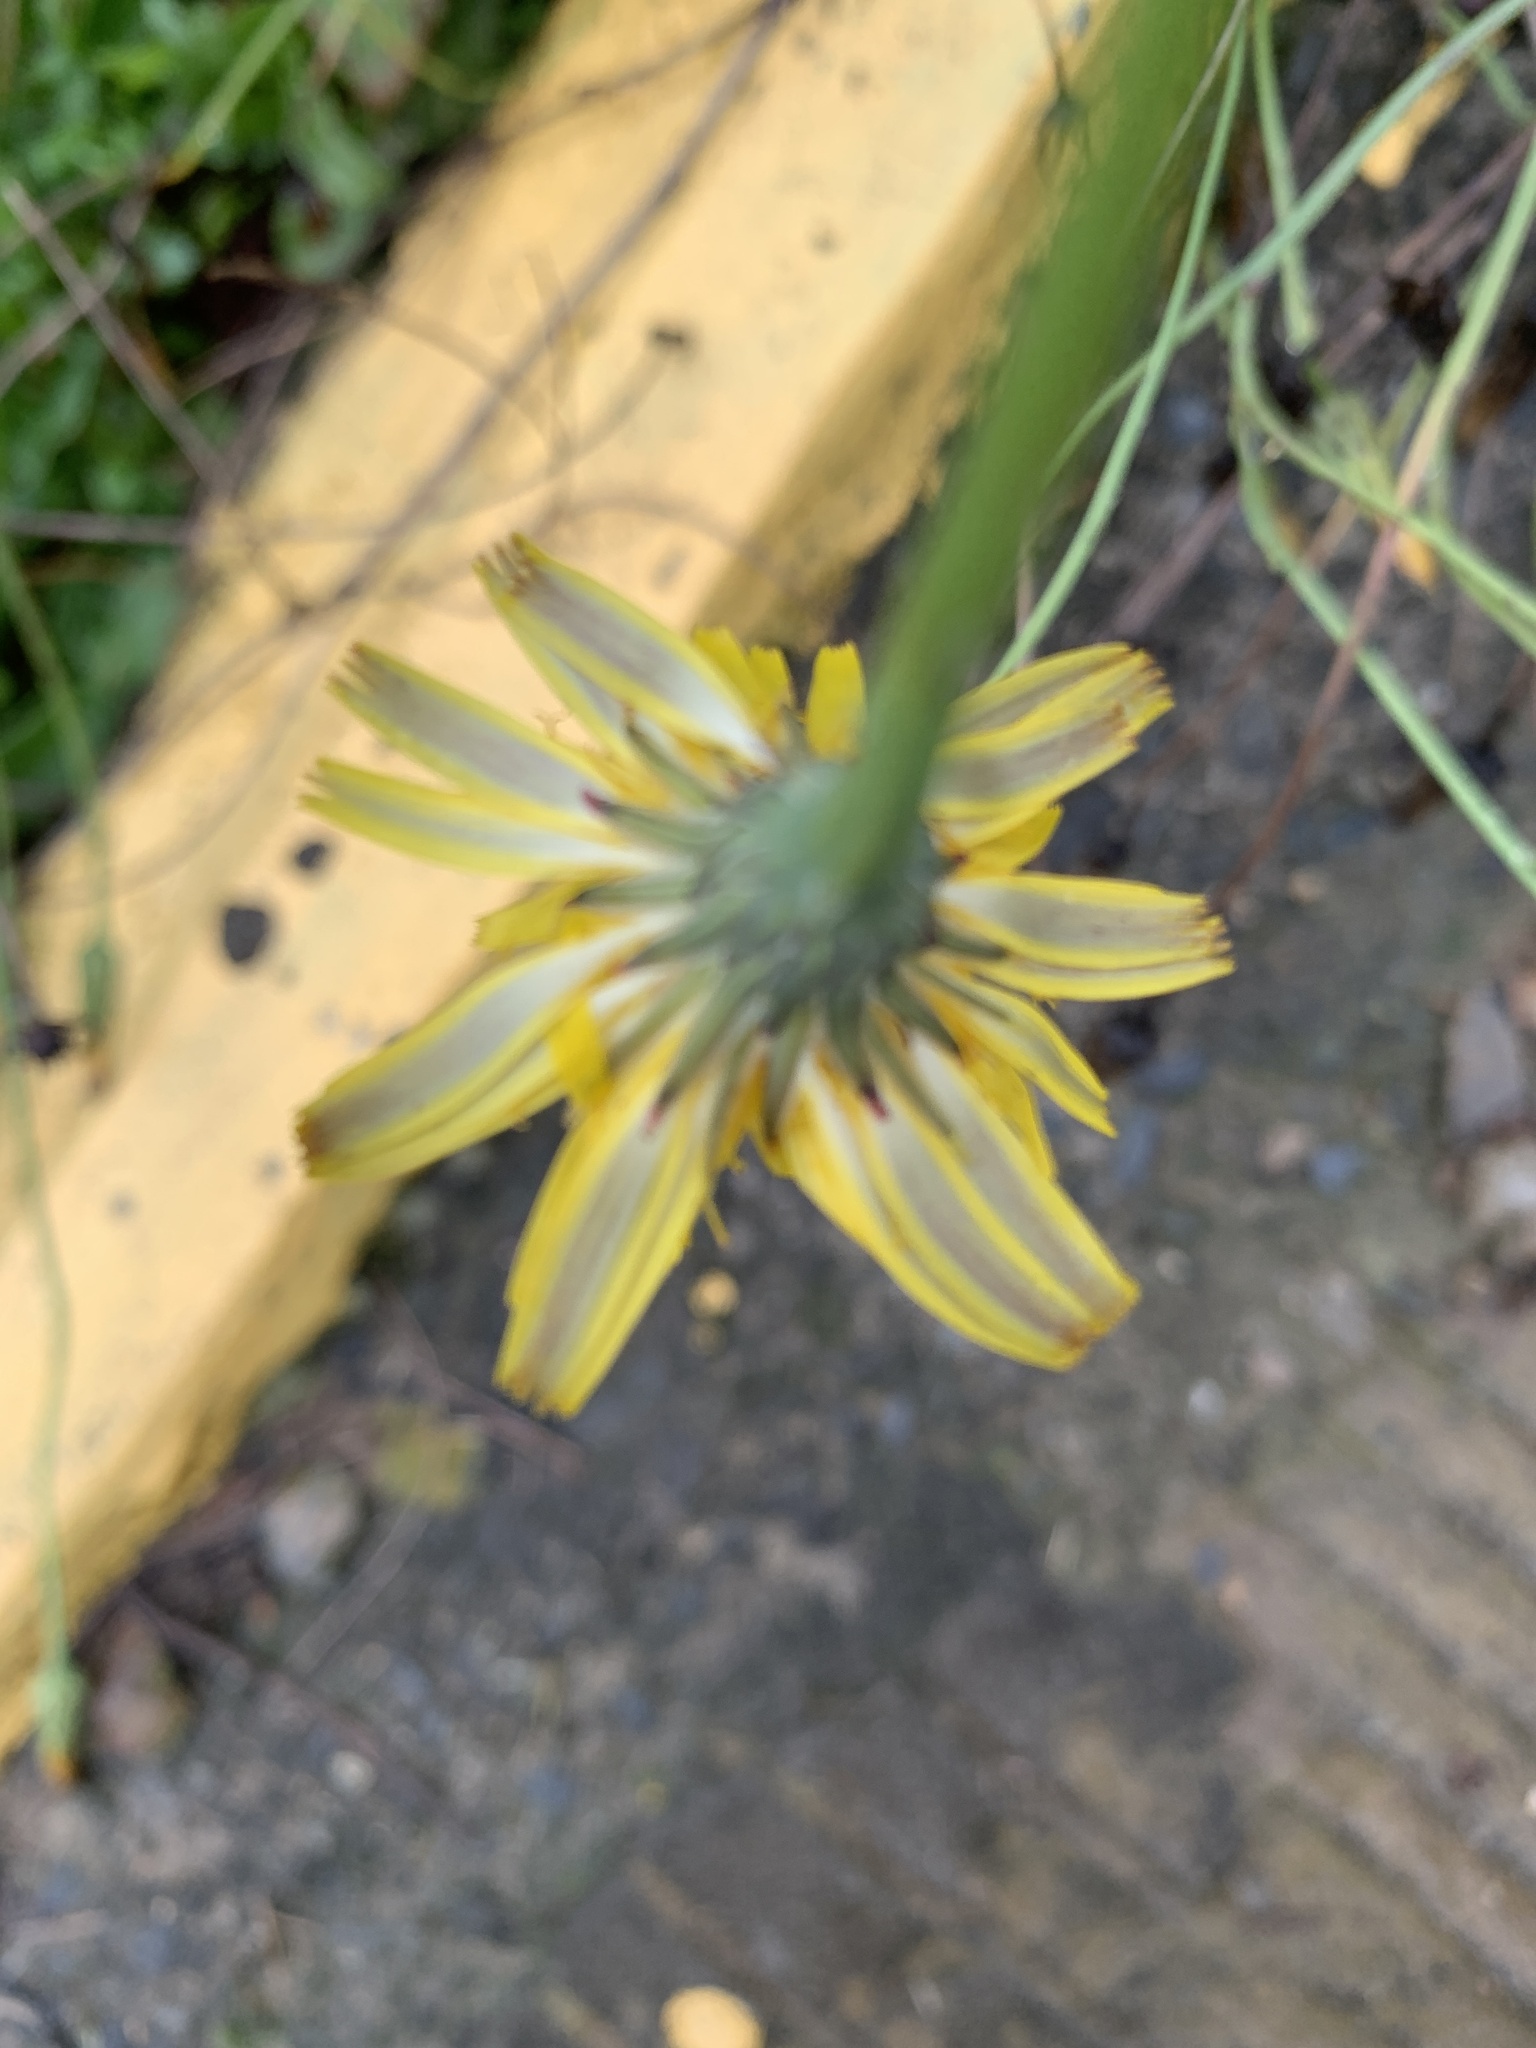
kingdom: Plantae
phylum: Tracheophyta
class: Magnoliopsida
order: Asterales
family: Asteraceae
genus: Hypochaeris
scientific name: Hypochaeris radicata
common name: Flatweed
